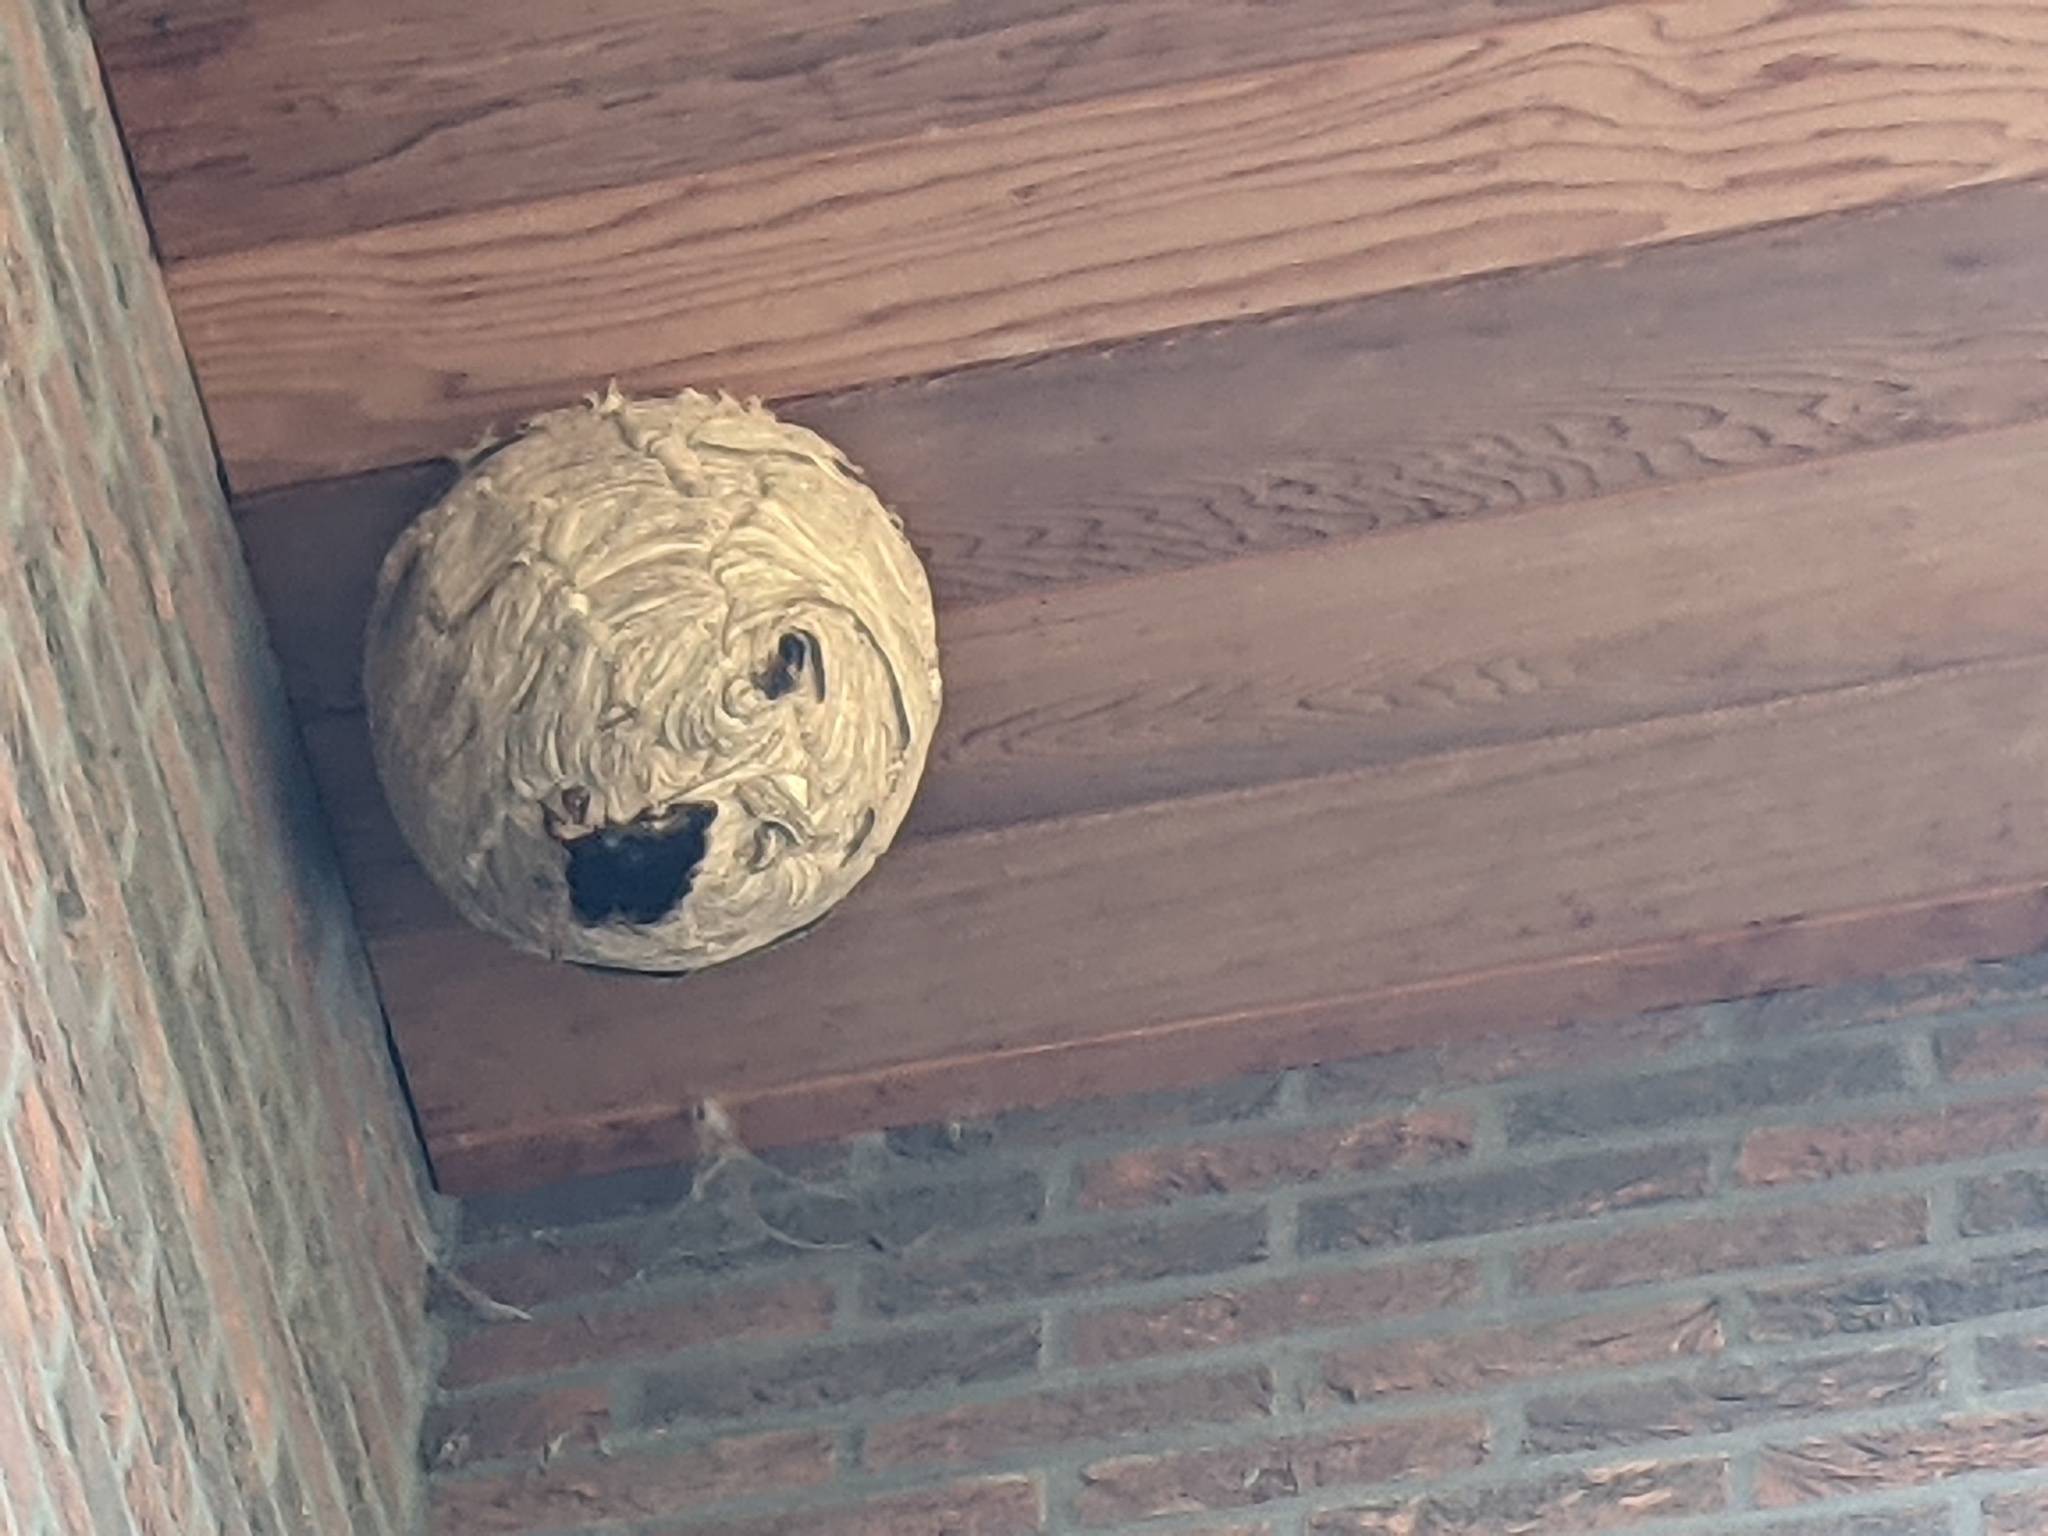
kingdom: Animalia
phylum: Arthropoda
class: Insecta
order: Hymenoptera
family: Vespidae
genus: Vespa
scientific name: Vespa velutina
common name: Asian hornet
